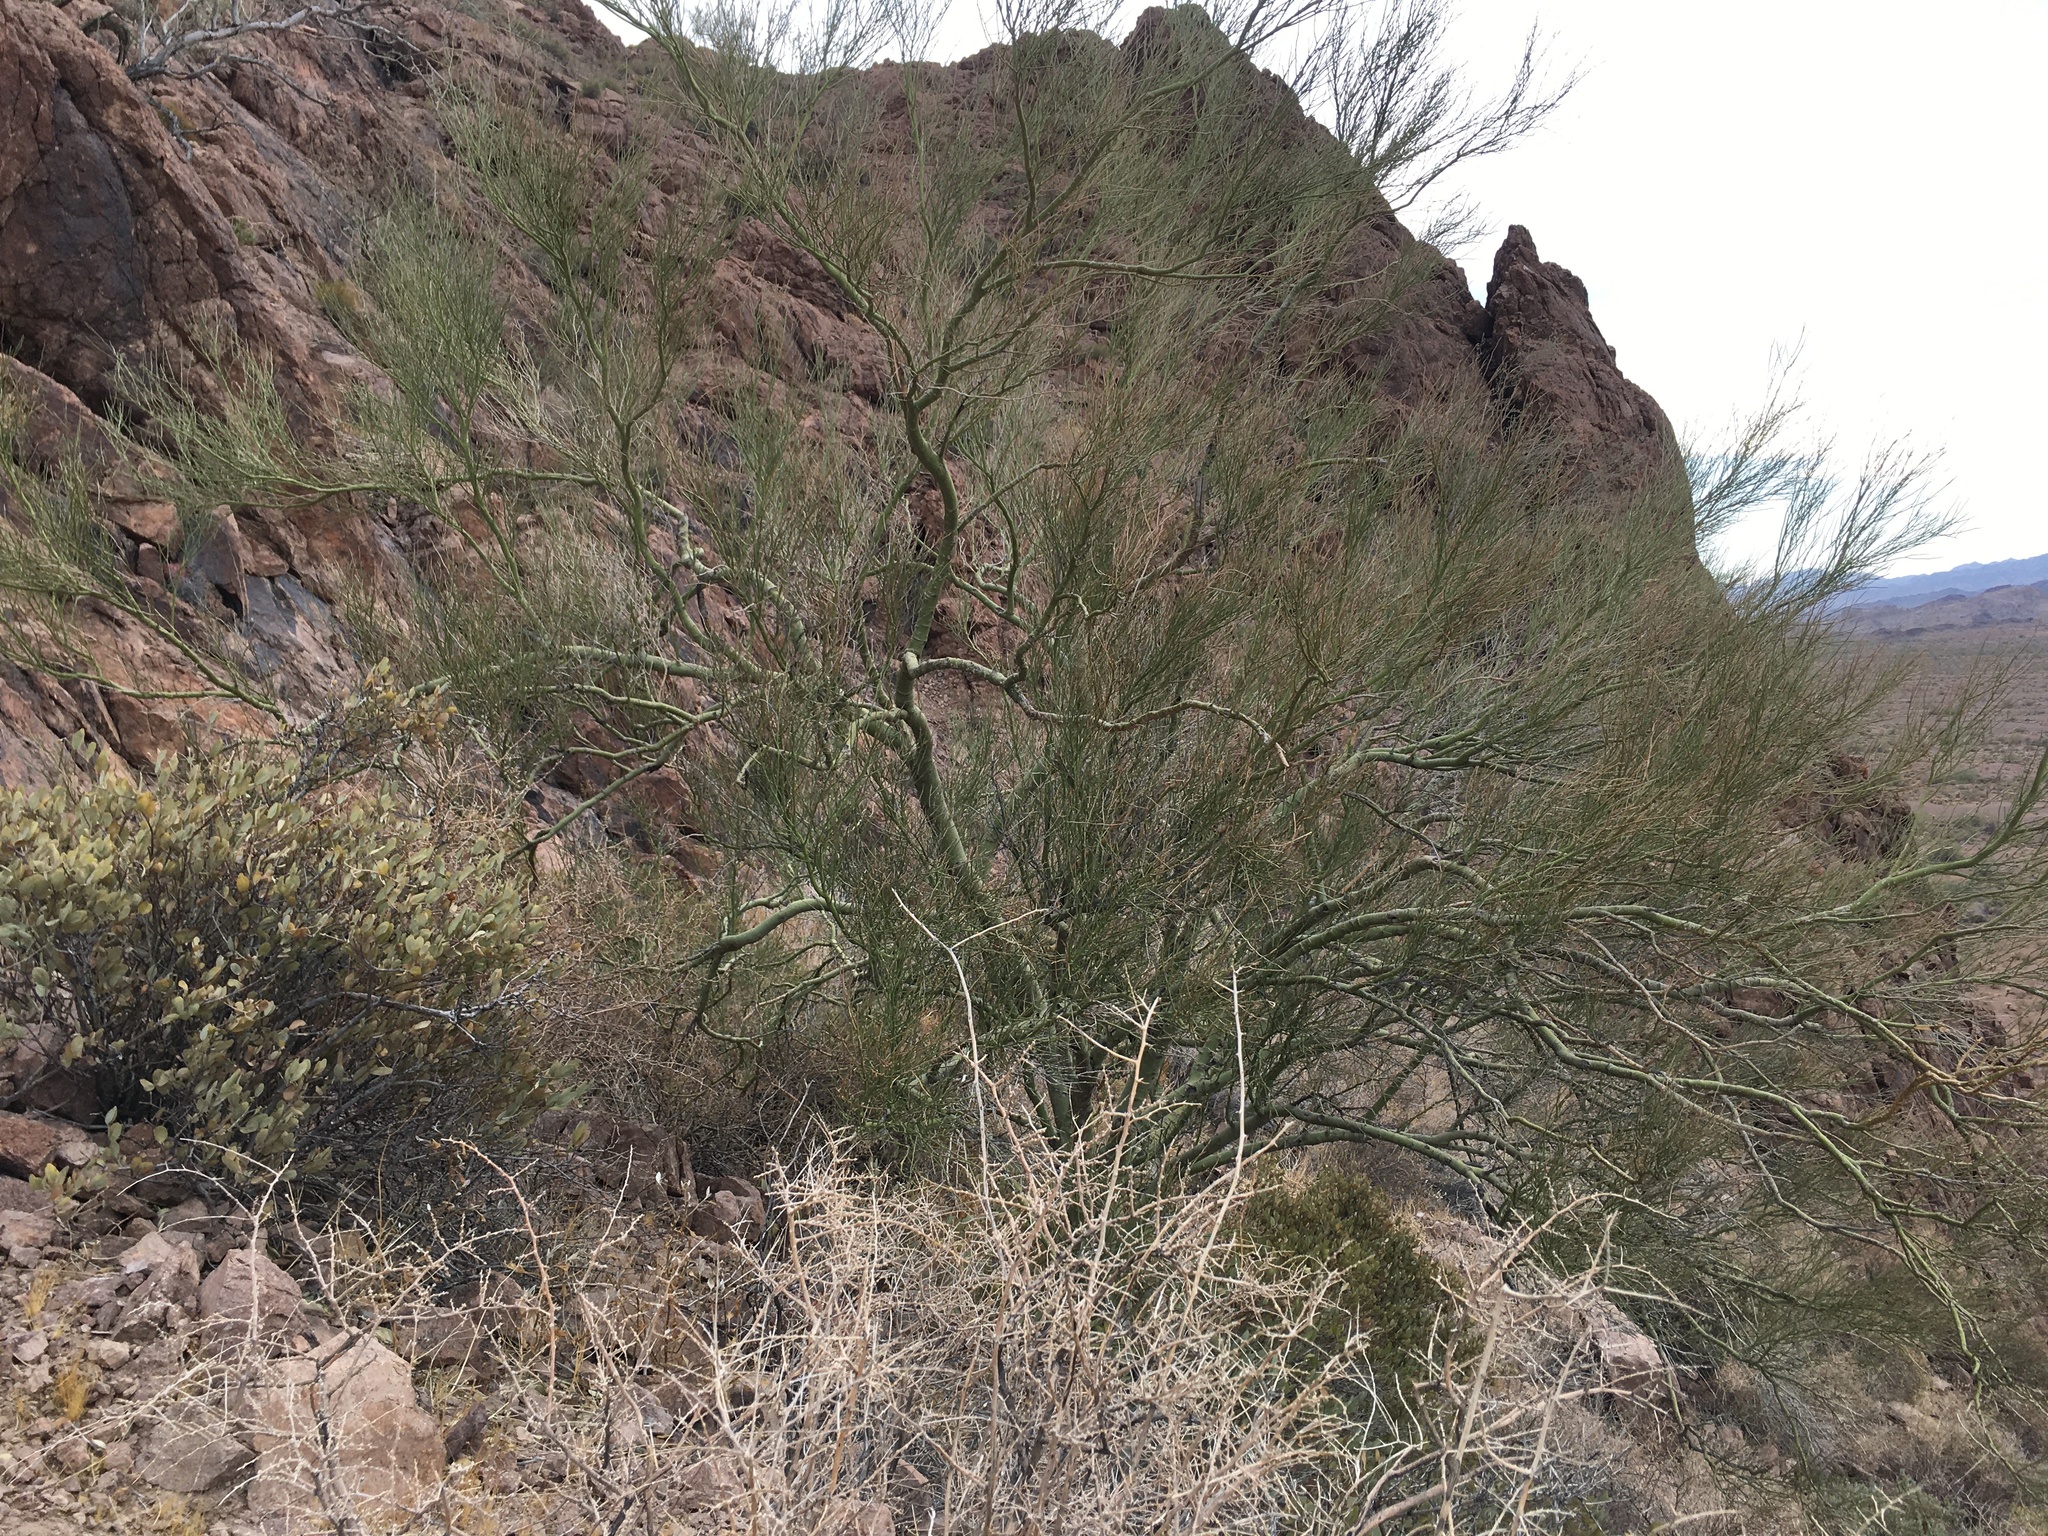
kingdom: Plantae
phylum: Tracheophyta
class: Magnoliopsida
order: Fabales
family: Fabaceae
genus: Parkinsonia
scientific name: Parkinsonia microphylla
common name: Yellow paloverde
